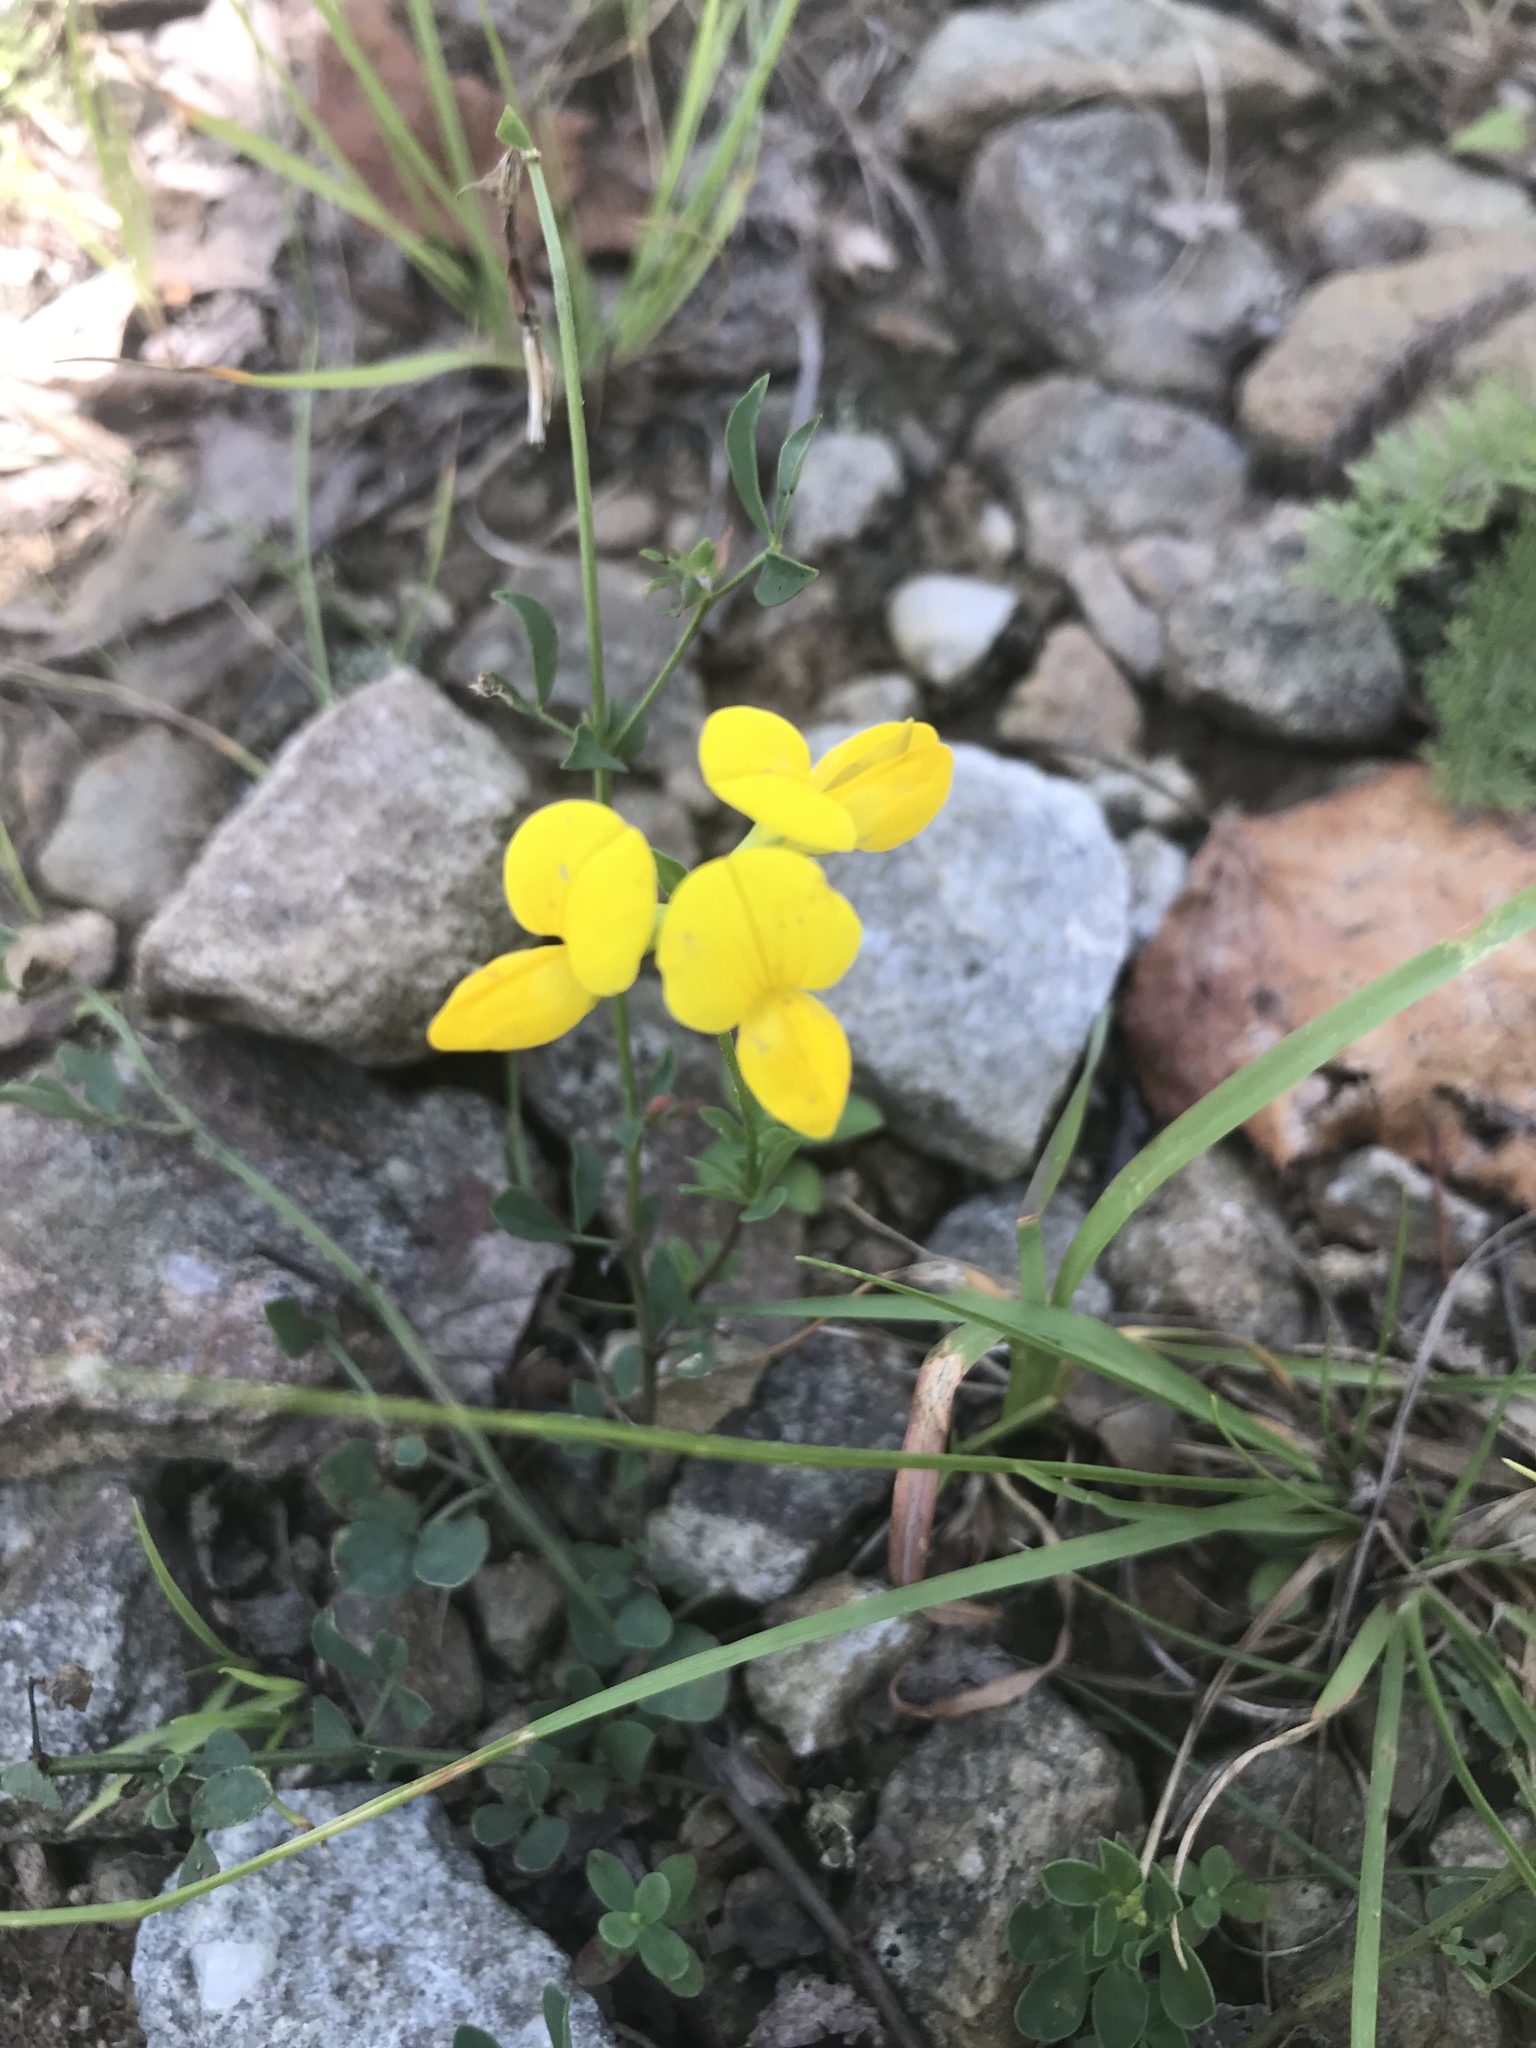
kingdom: Plantae
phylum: Tracheophyta
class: Magnoliopsida
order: Fabales
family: Fabaceae
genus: Lotus
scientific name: Lotus corniculatus
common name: Common bird's-foot-trefoil
